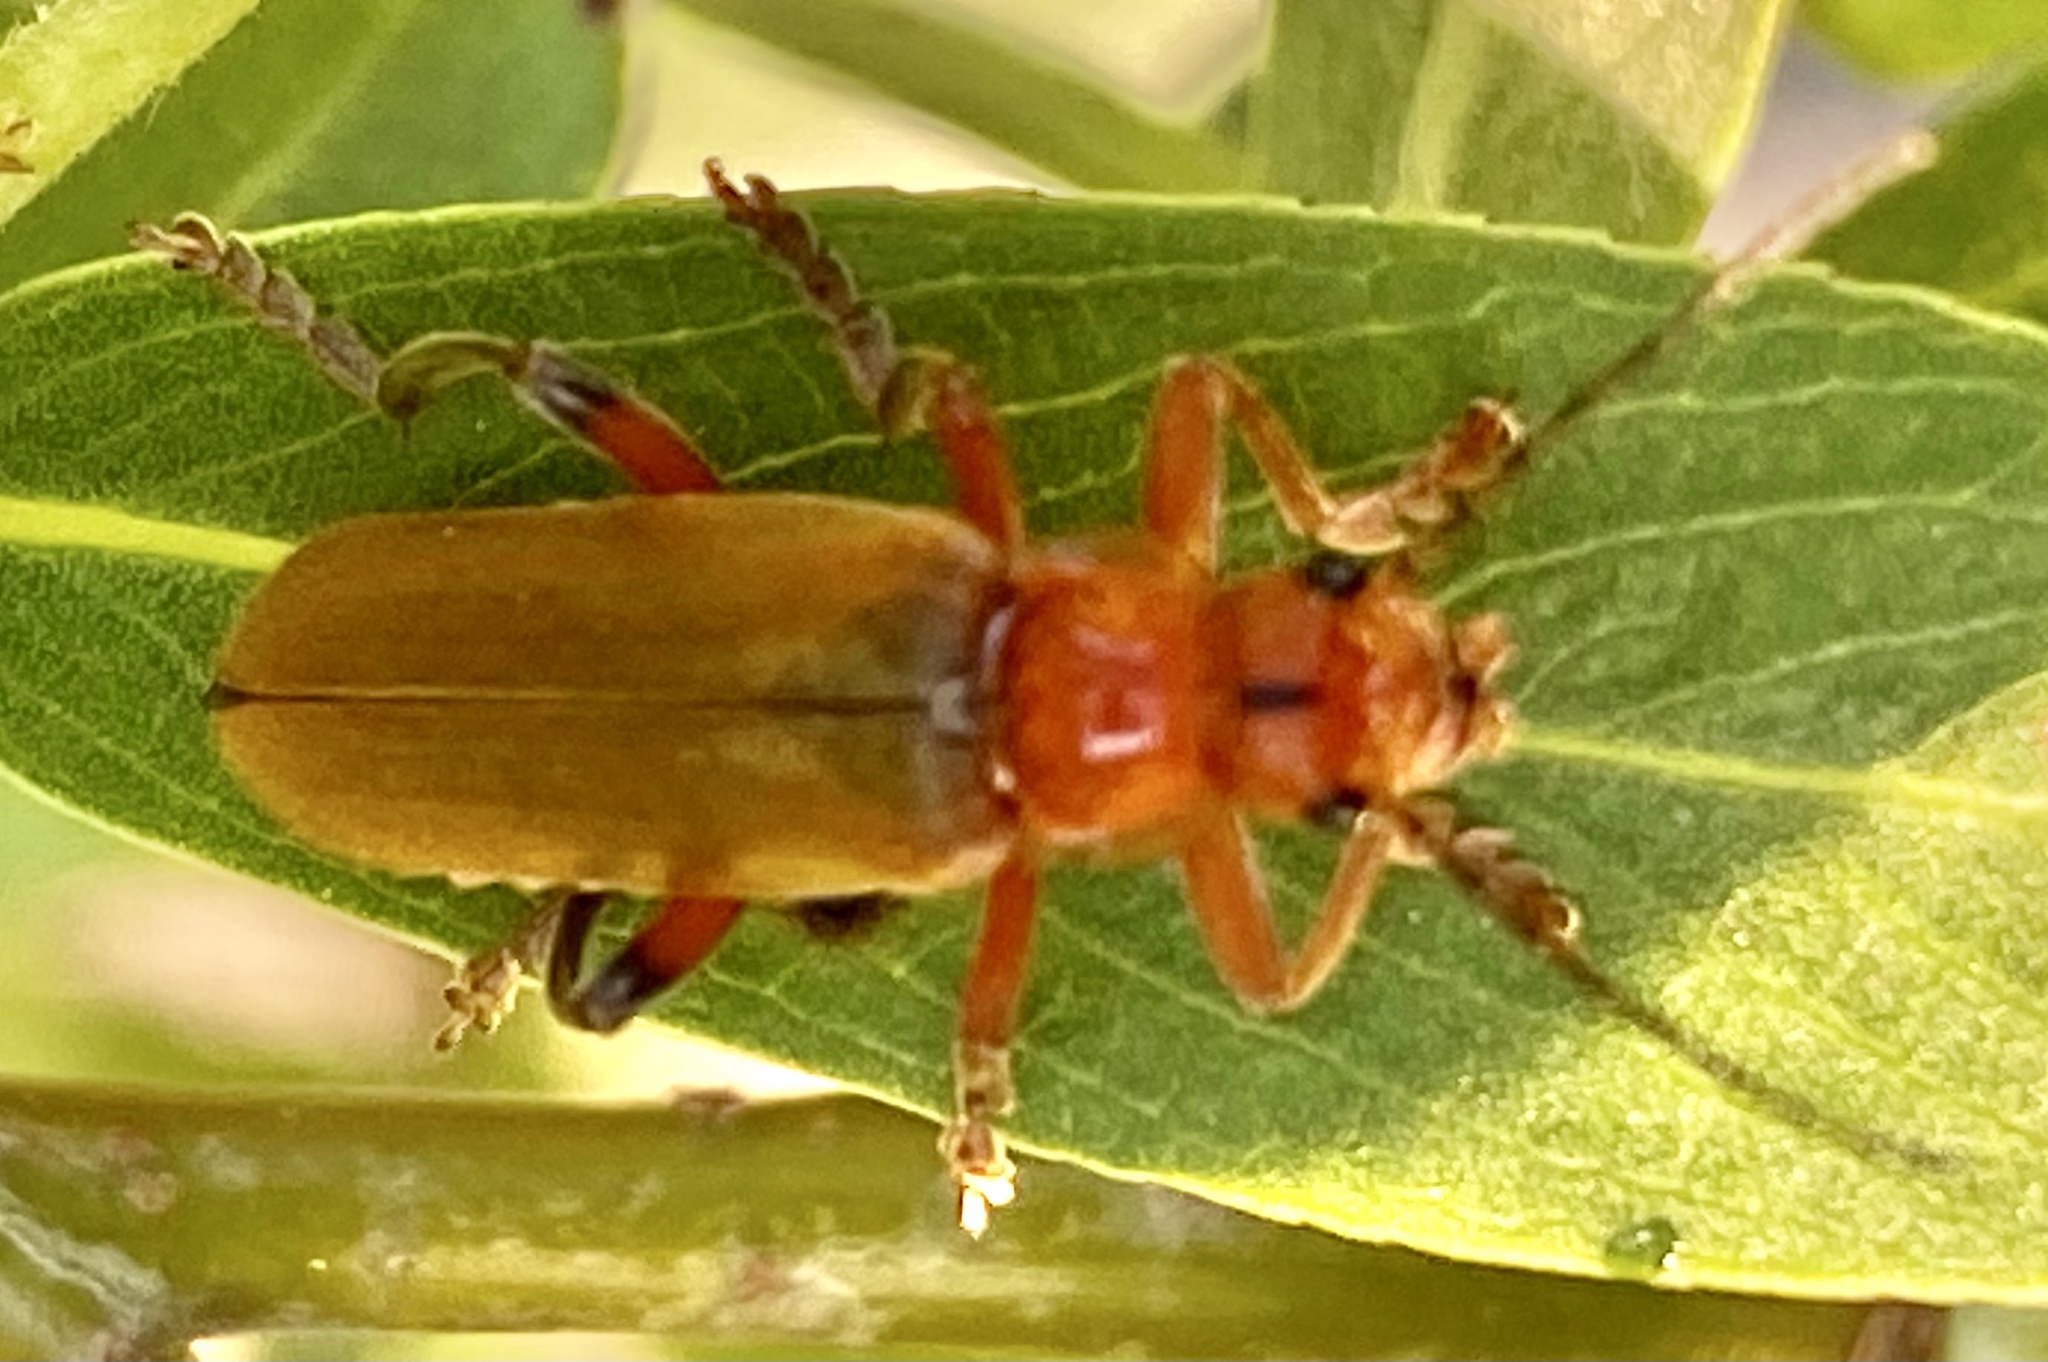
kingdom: Animalia
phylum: Arthropoda
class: Insecta
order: Coleoptera
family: Cantharidae
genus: Cantharis
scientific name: Cantharis livida
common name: Livid soldier beetle
